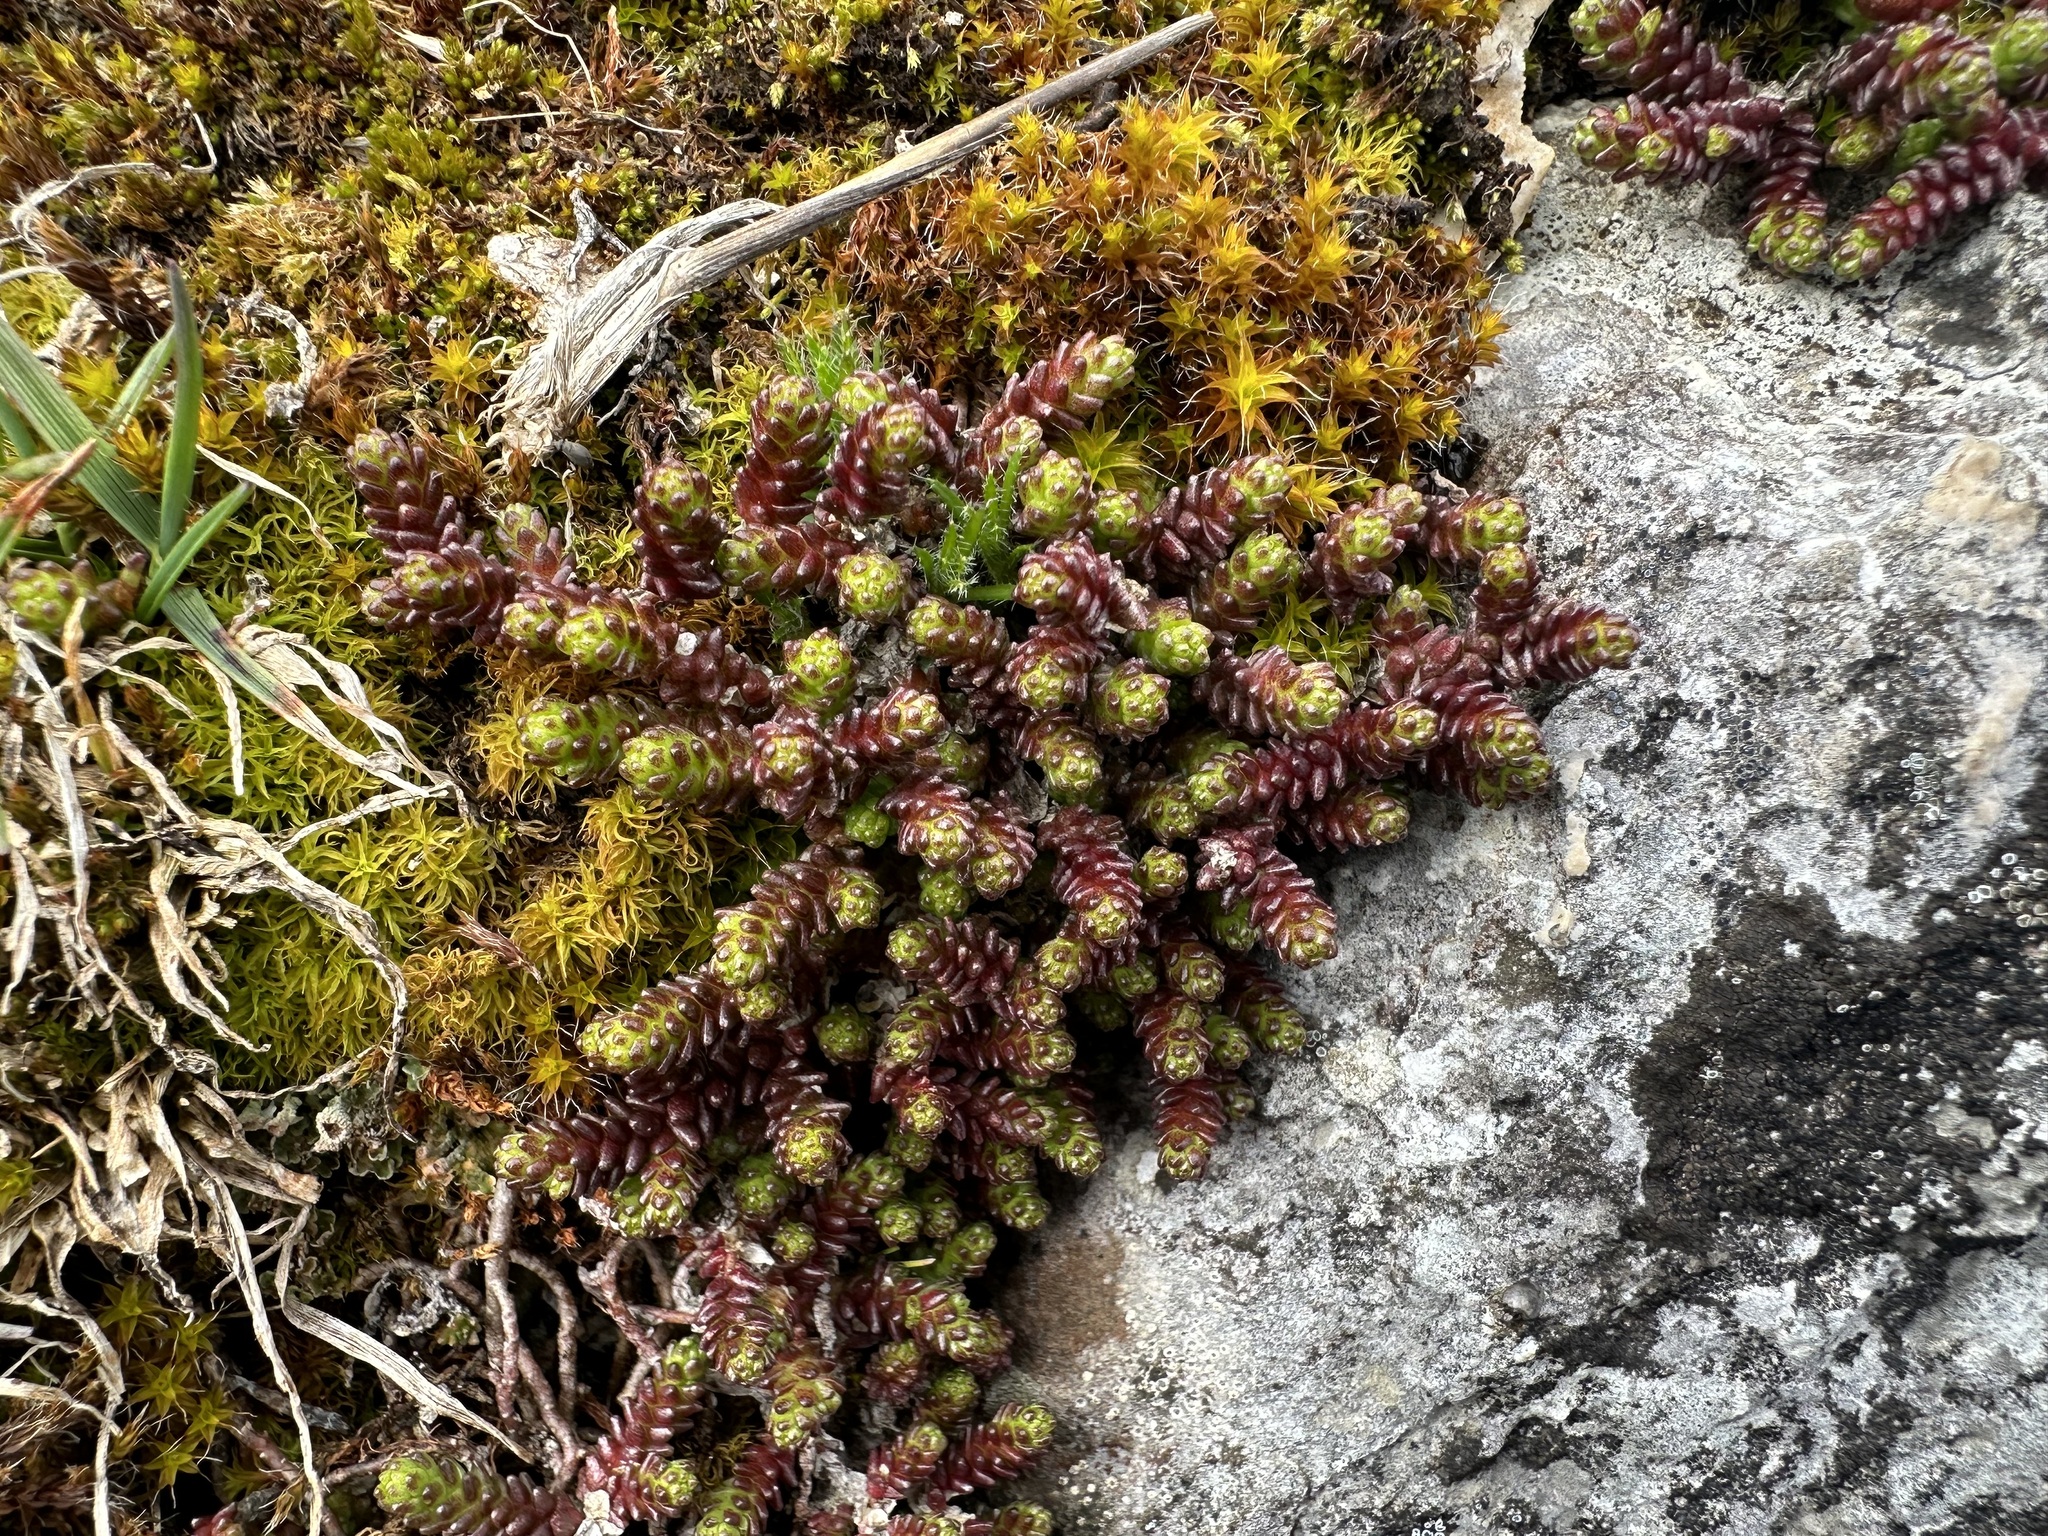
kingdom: Plantae
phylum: Tracheophyta
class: Magnoliopsida
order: Saxifragales
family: Crassulaceae
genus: Sedum
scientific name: Sedum sexangulare
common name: Tasteless stonecrop
